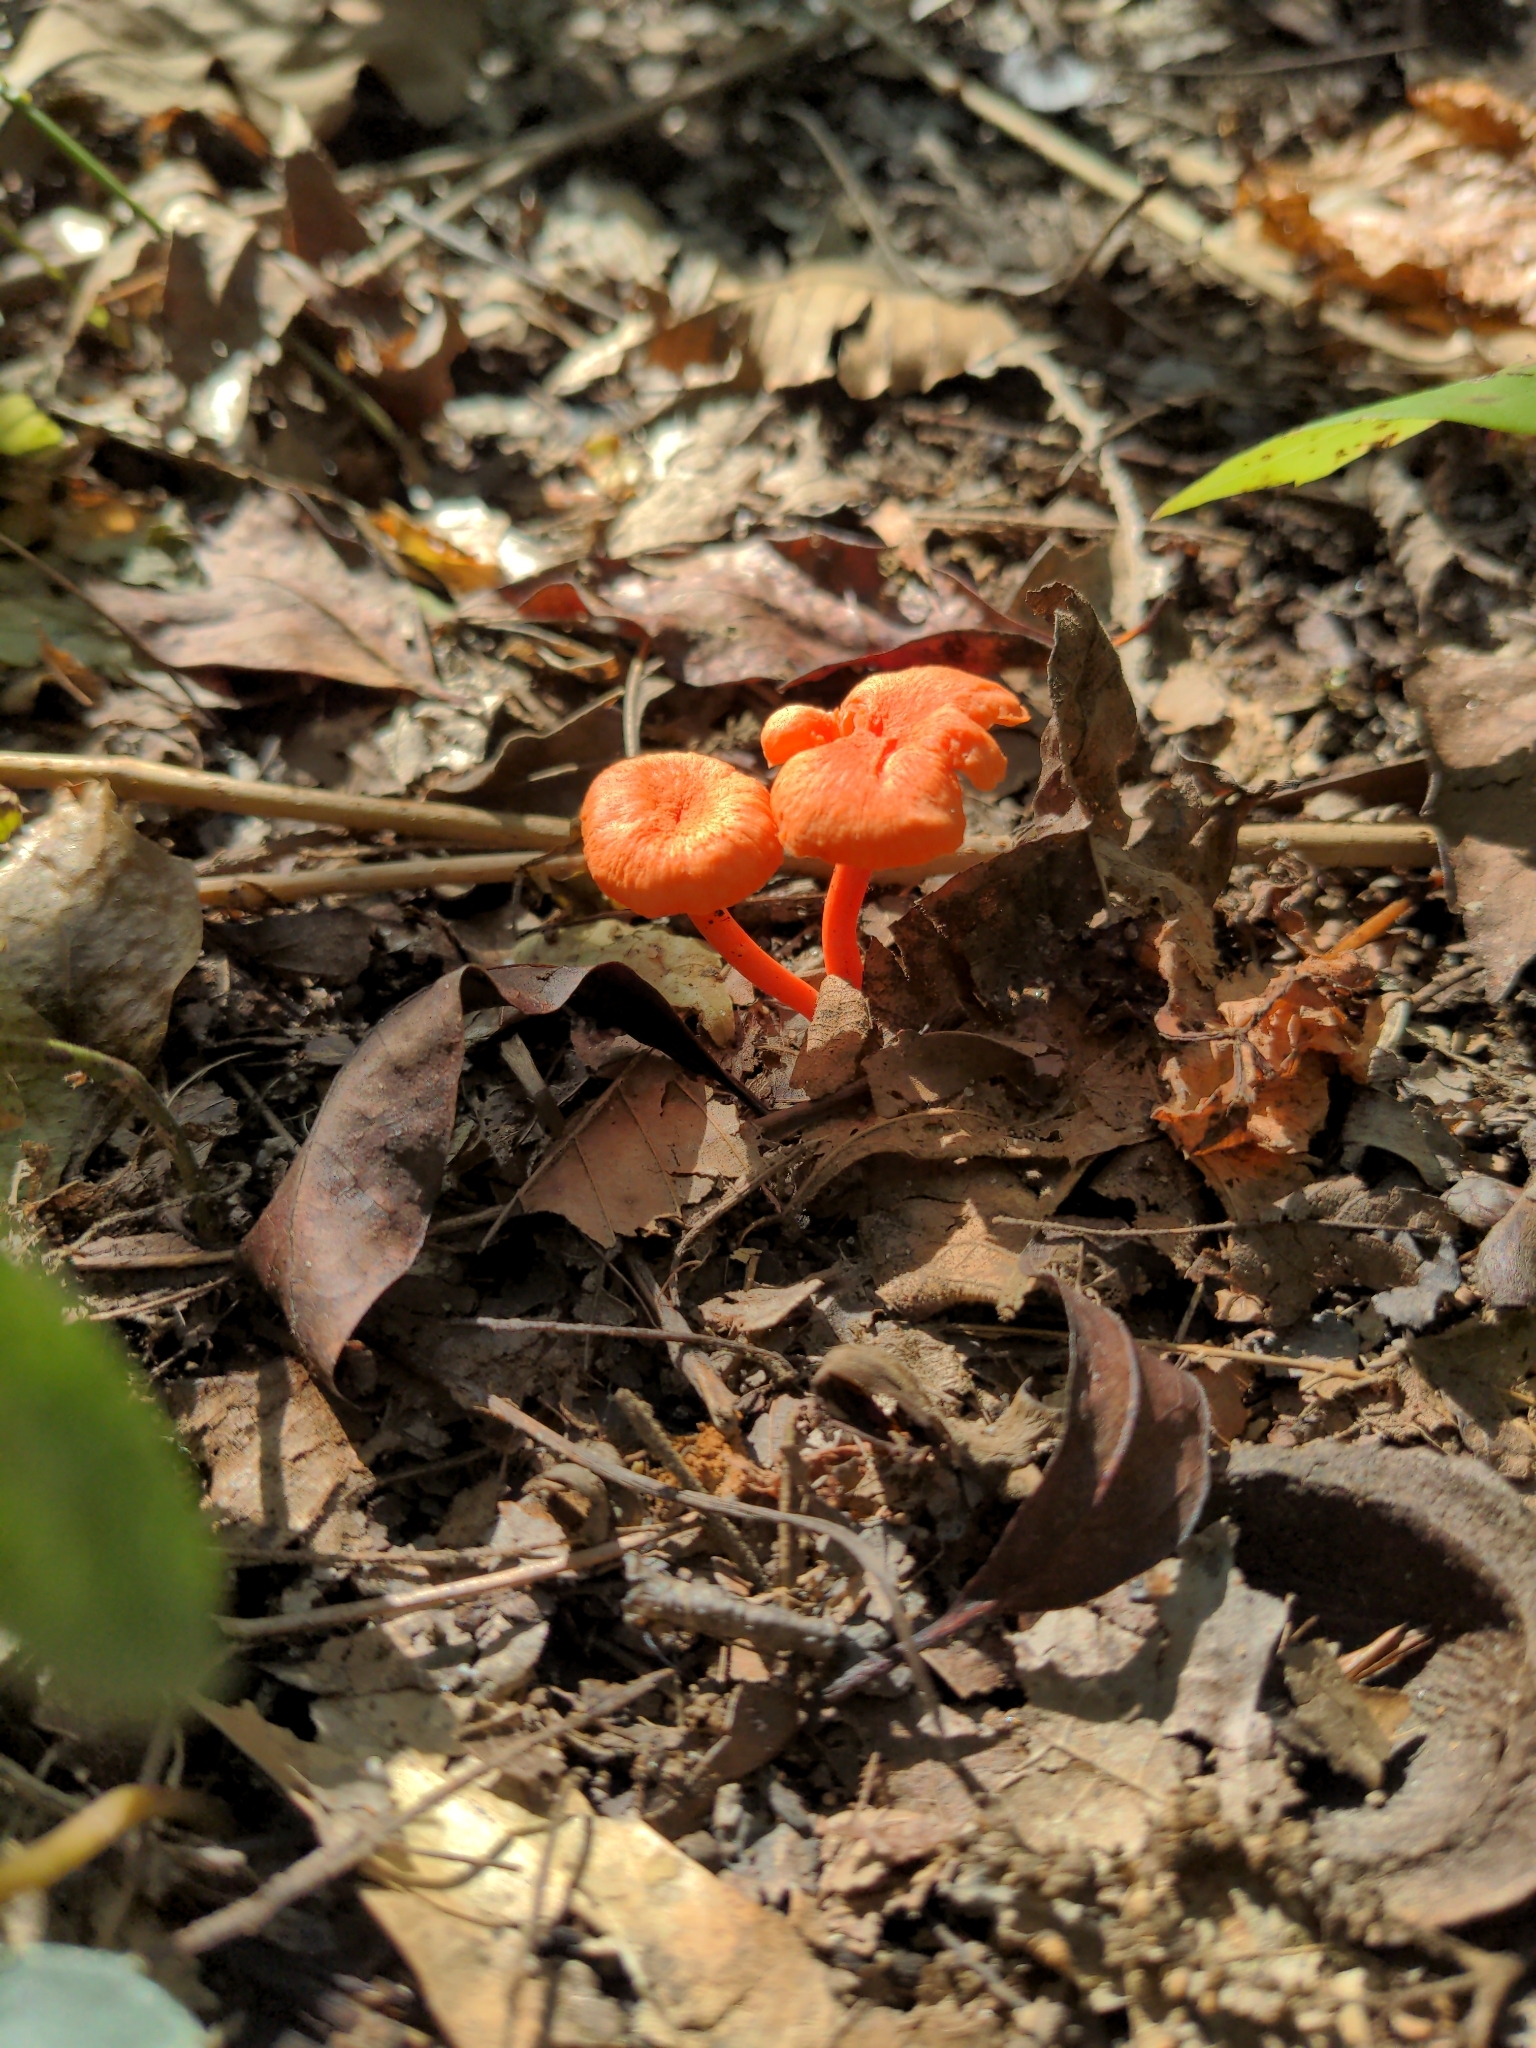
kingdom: Fungi
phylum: Basidiomycota
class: Agaricomycetes
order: Cantharellales
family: Hydnaceae
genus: Cantharellus
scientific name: Cantharellus cinnabarinus
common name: Cinnabar chanterelle
